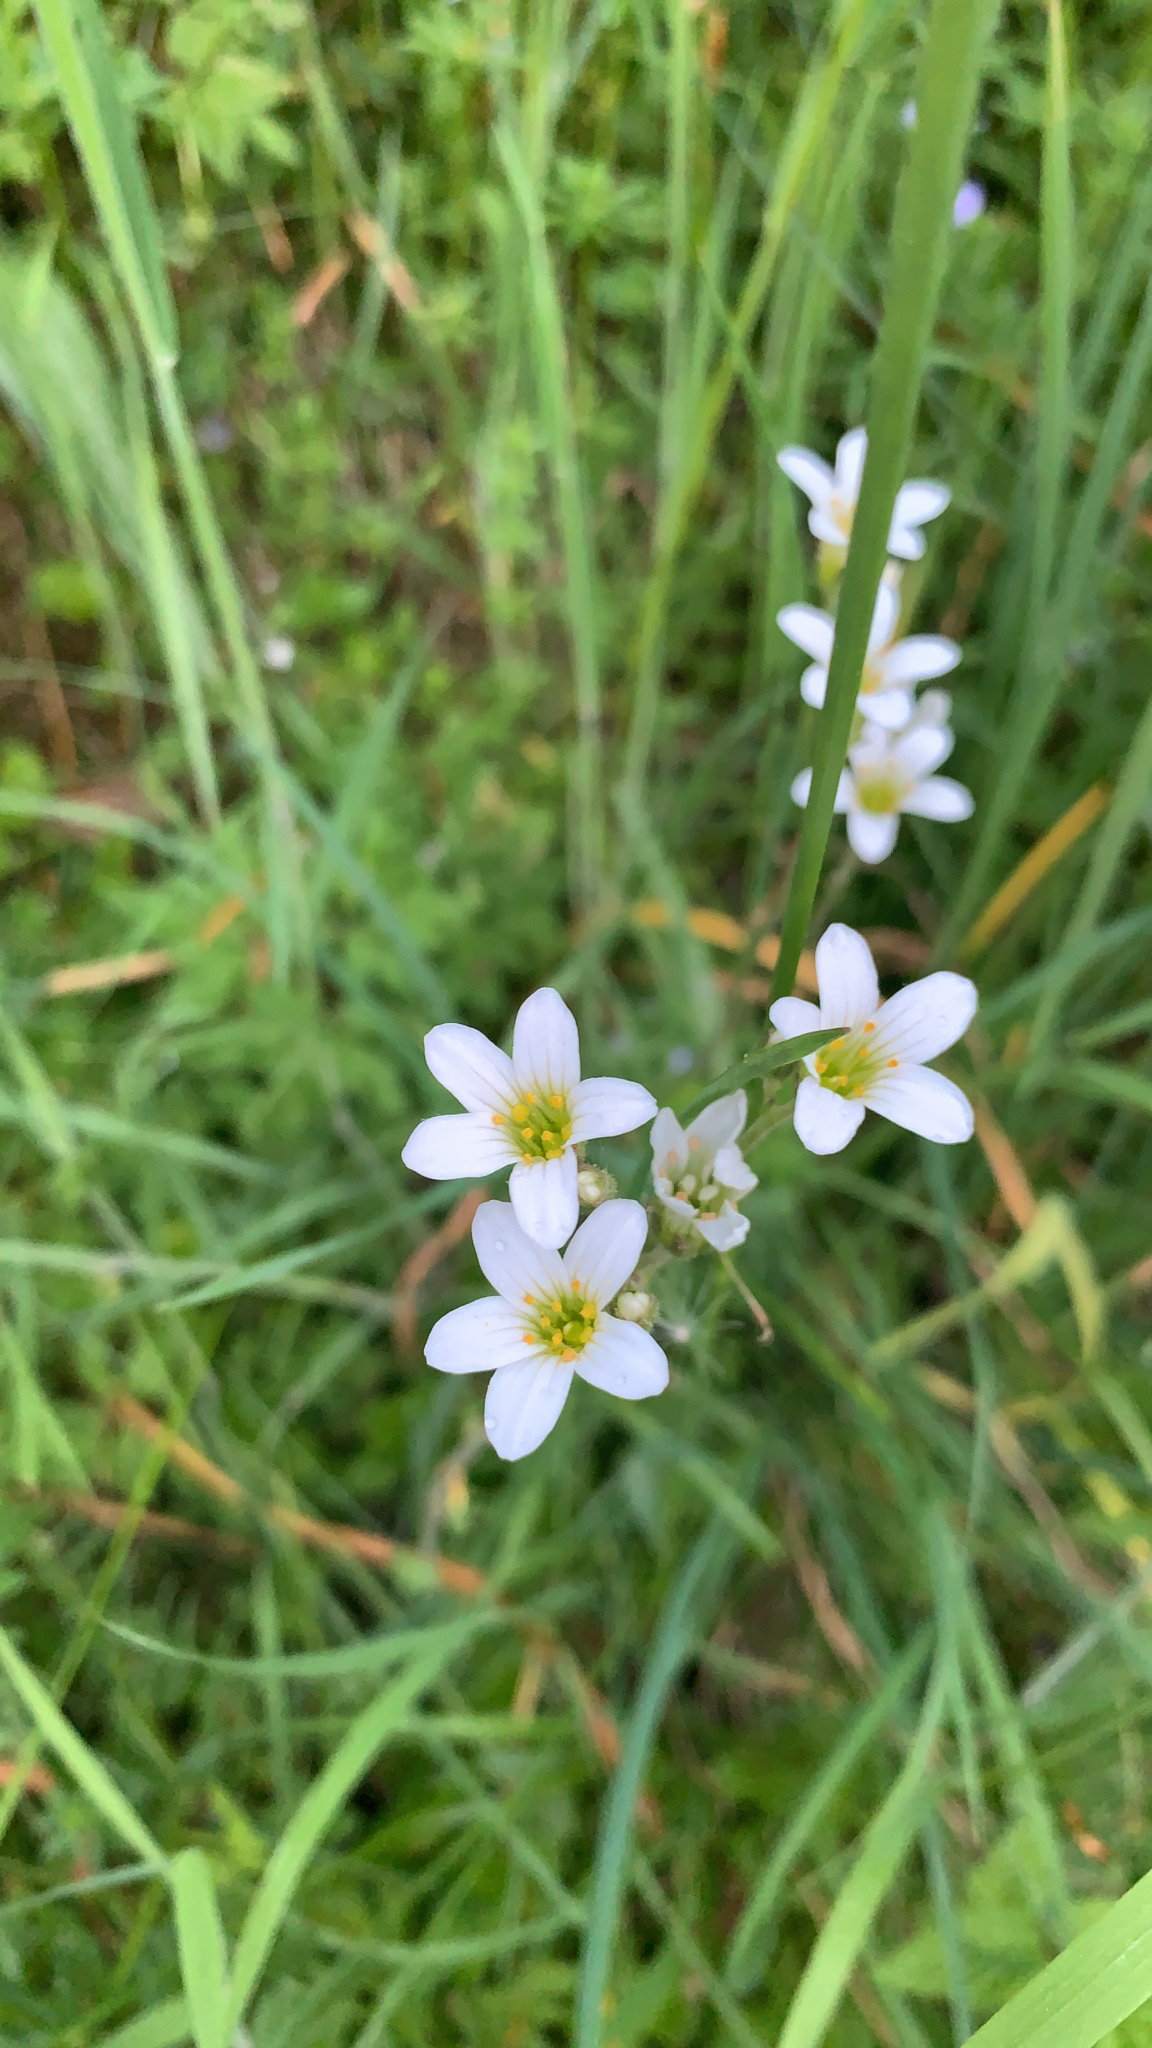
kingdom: Plantae
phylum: Tracheophyta
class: Magnoliopsida
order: Saxifragales
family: Saxifragaceae
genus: Saxifraga
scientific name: Saxifraga granulata
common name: Meadow saxifrage
